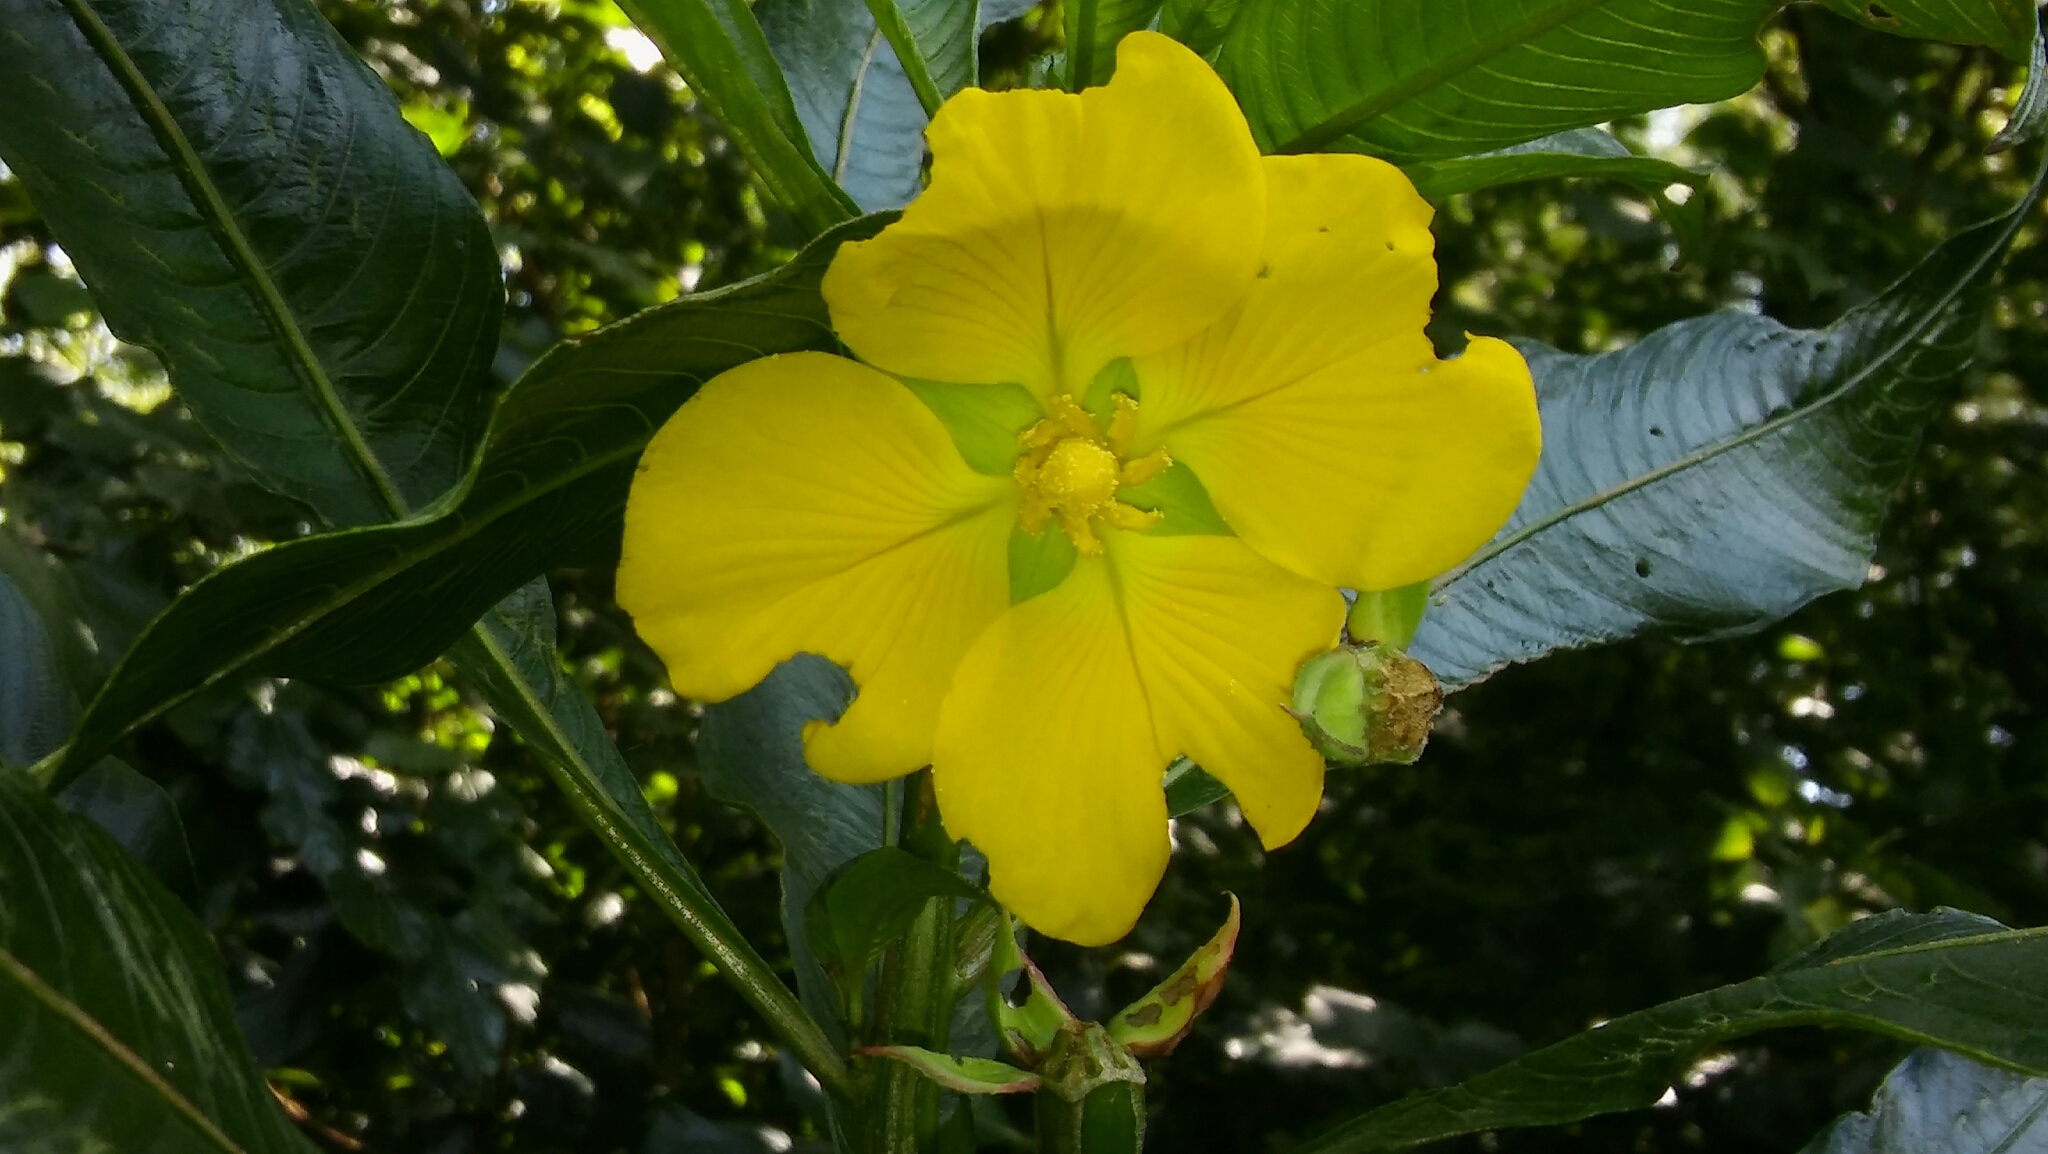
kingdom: Plantae
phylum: Tracheophyta
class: Magnoliopsida
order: Myrtales
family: Onagraceae
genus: Ludwigia
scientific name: Ludwigia elegans
